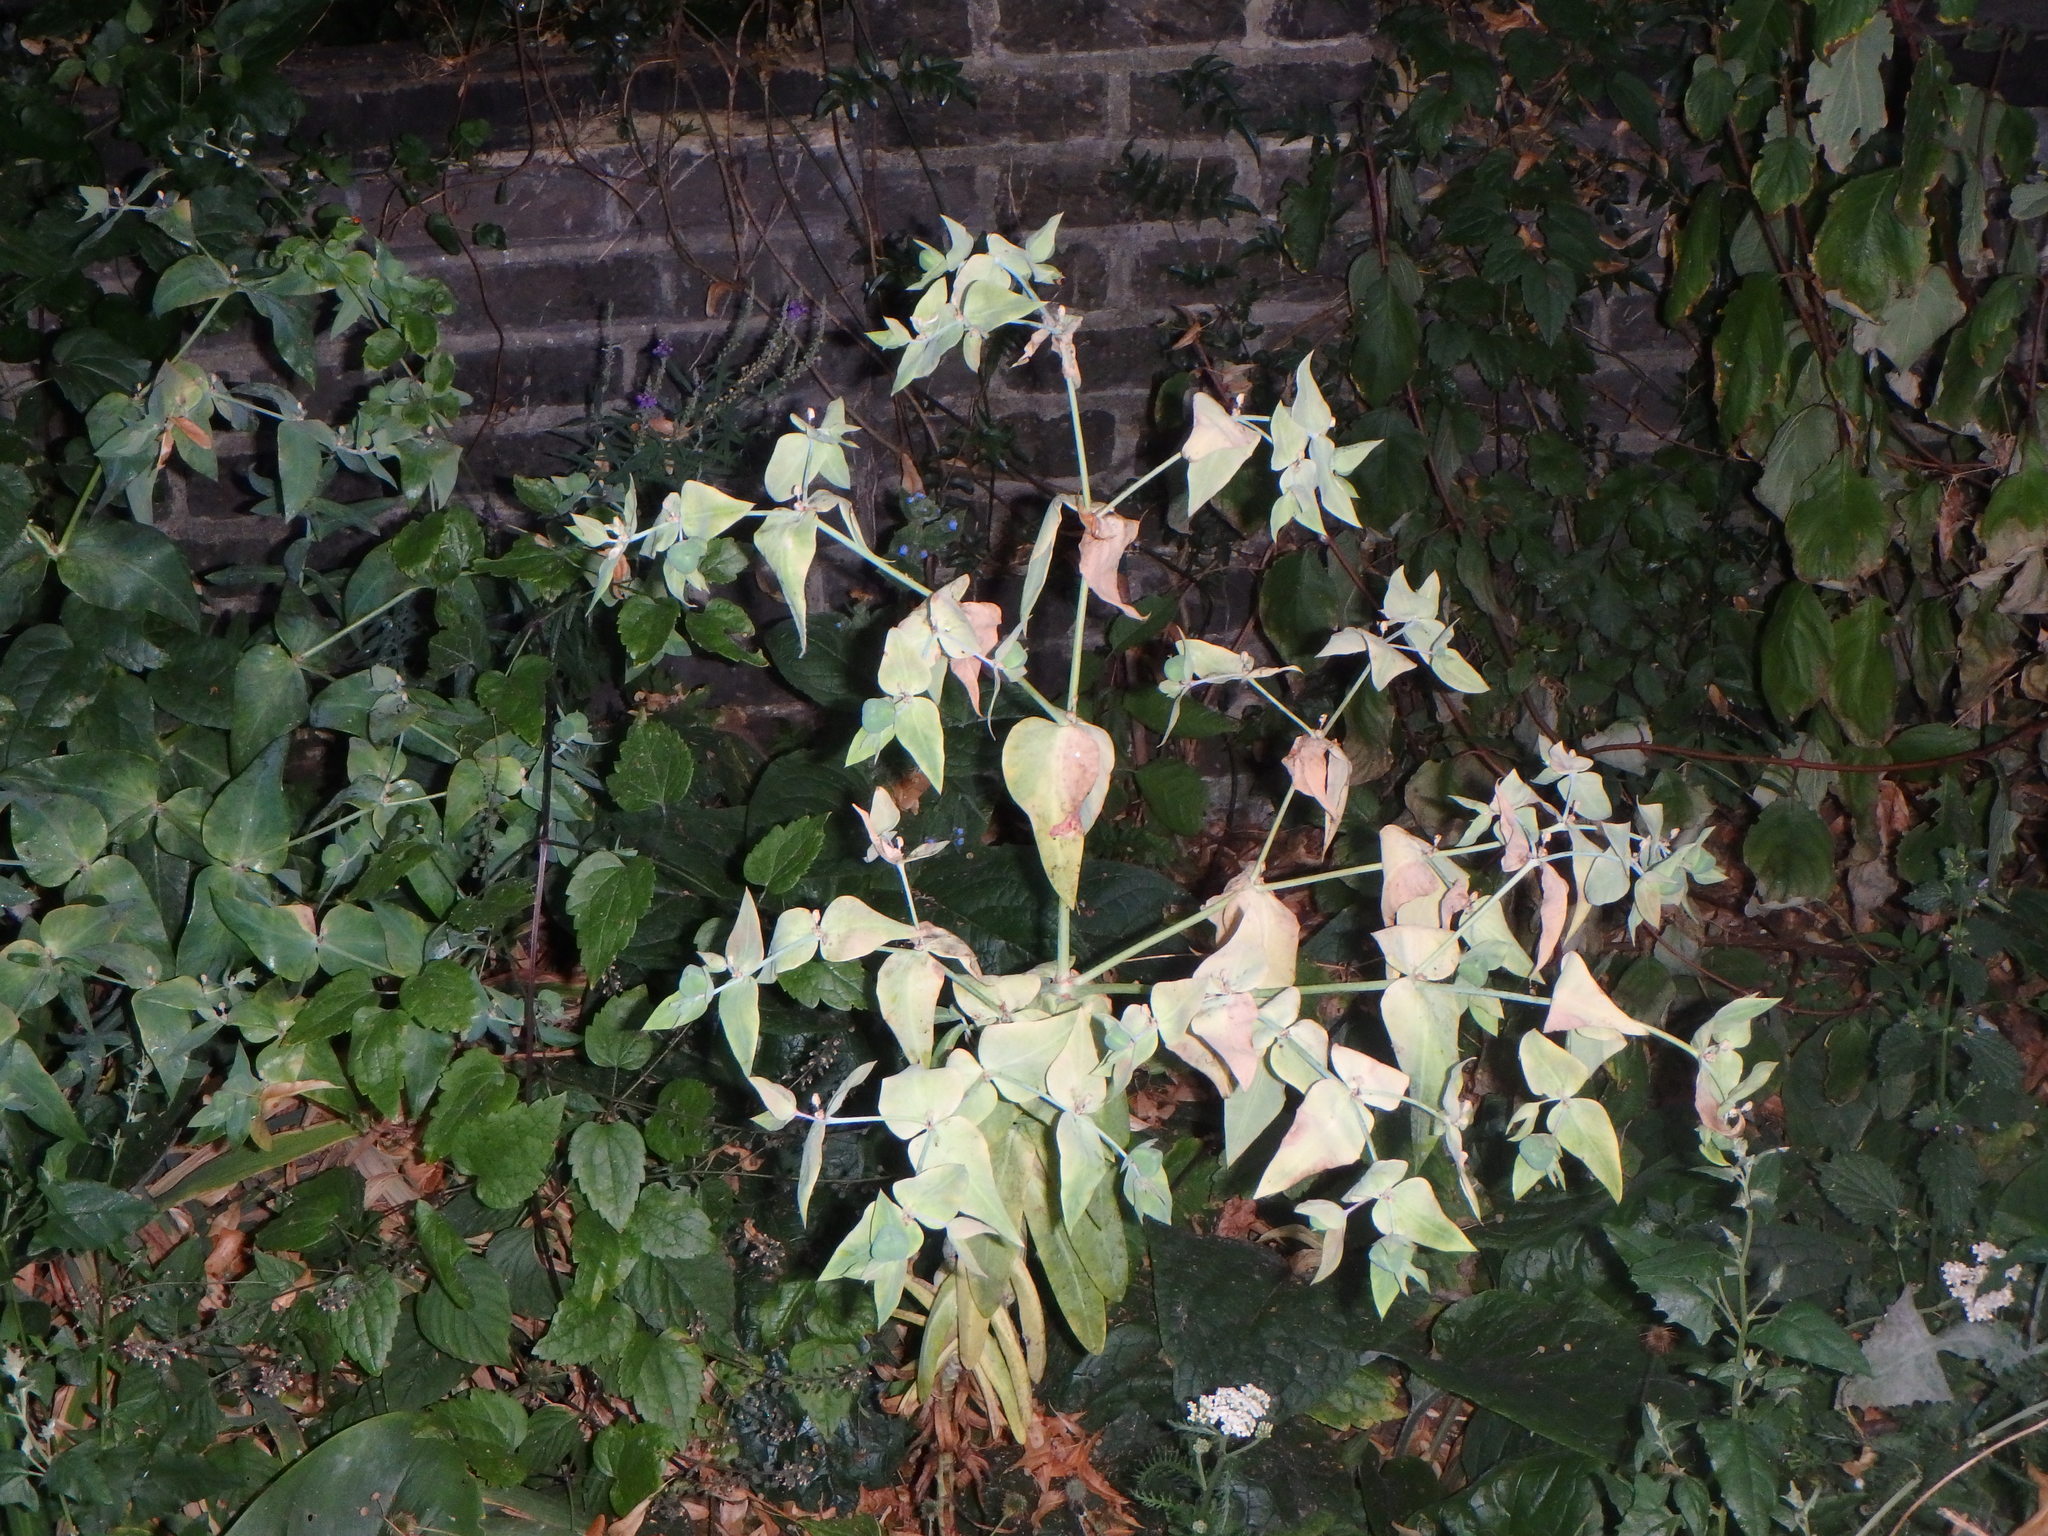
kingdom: Plantae
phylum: Tracheophyta
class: Magnoliopsida
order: Malpighiales
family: Euphorbiaceae
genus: Euphorbia
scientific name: Euphorbia lathyris
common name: Caper spurge
